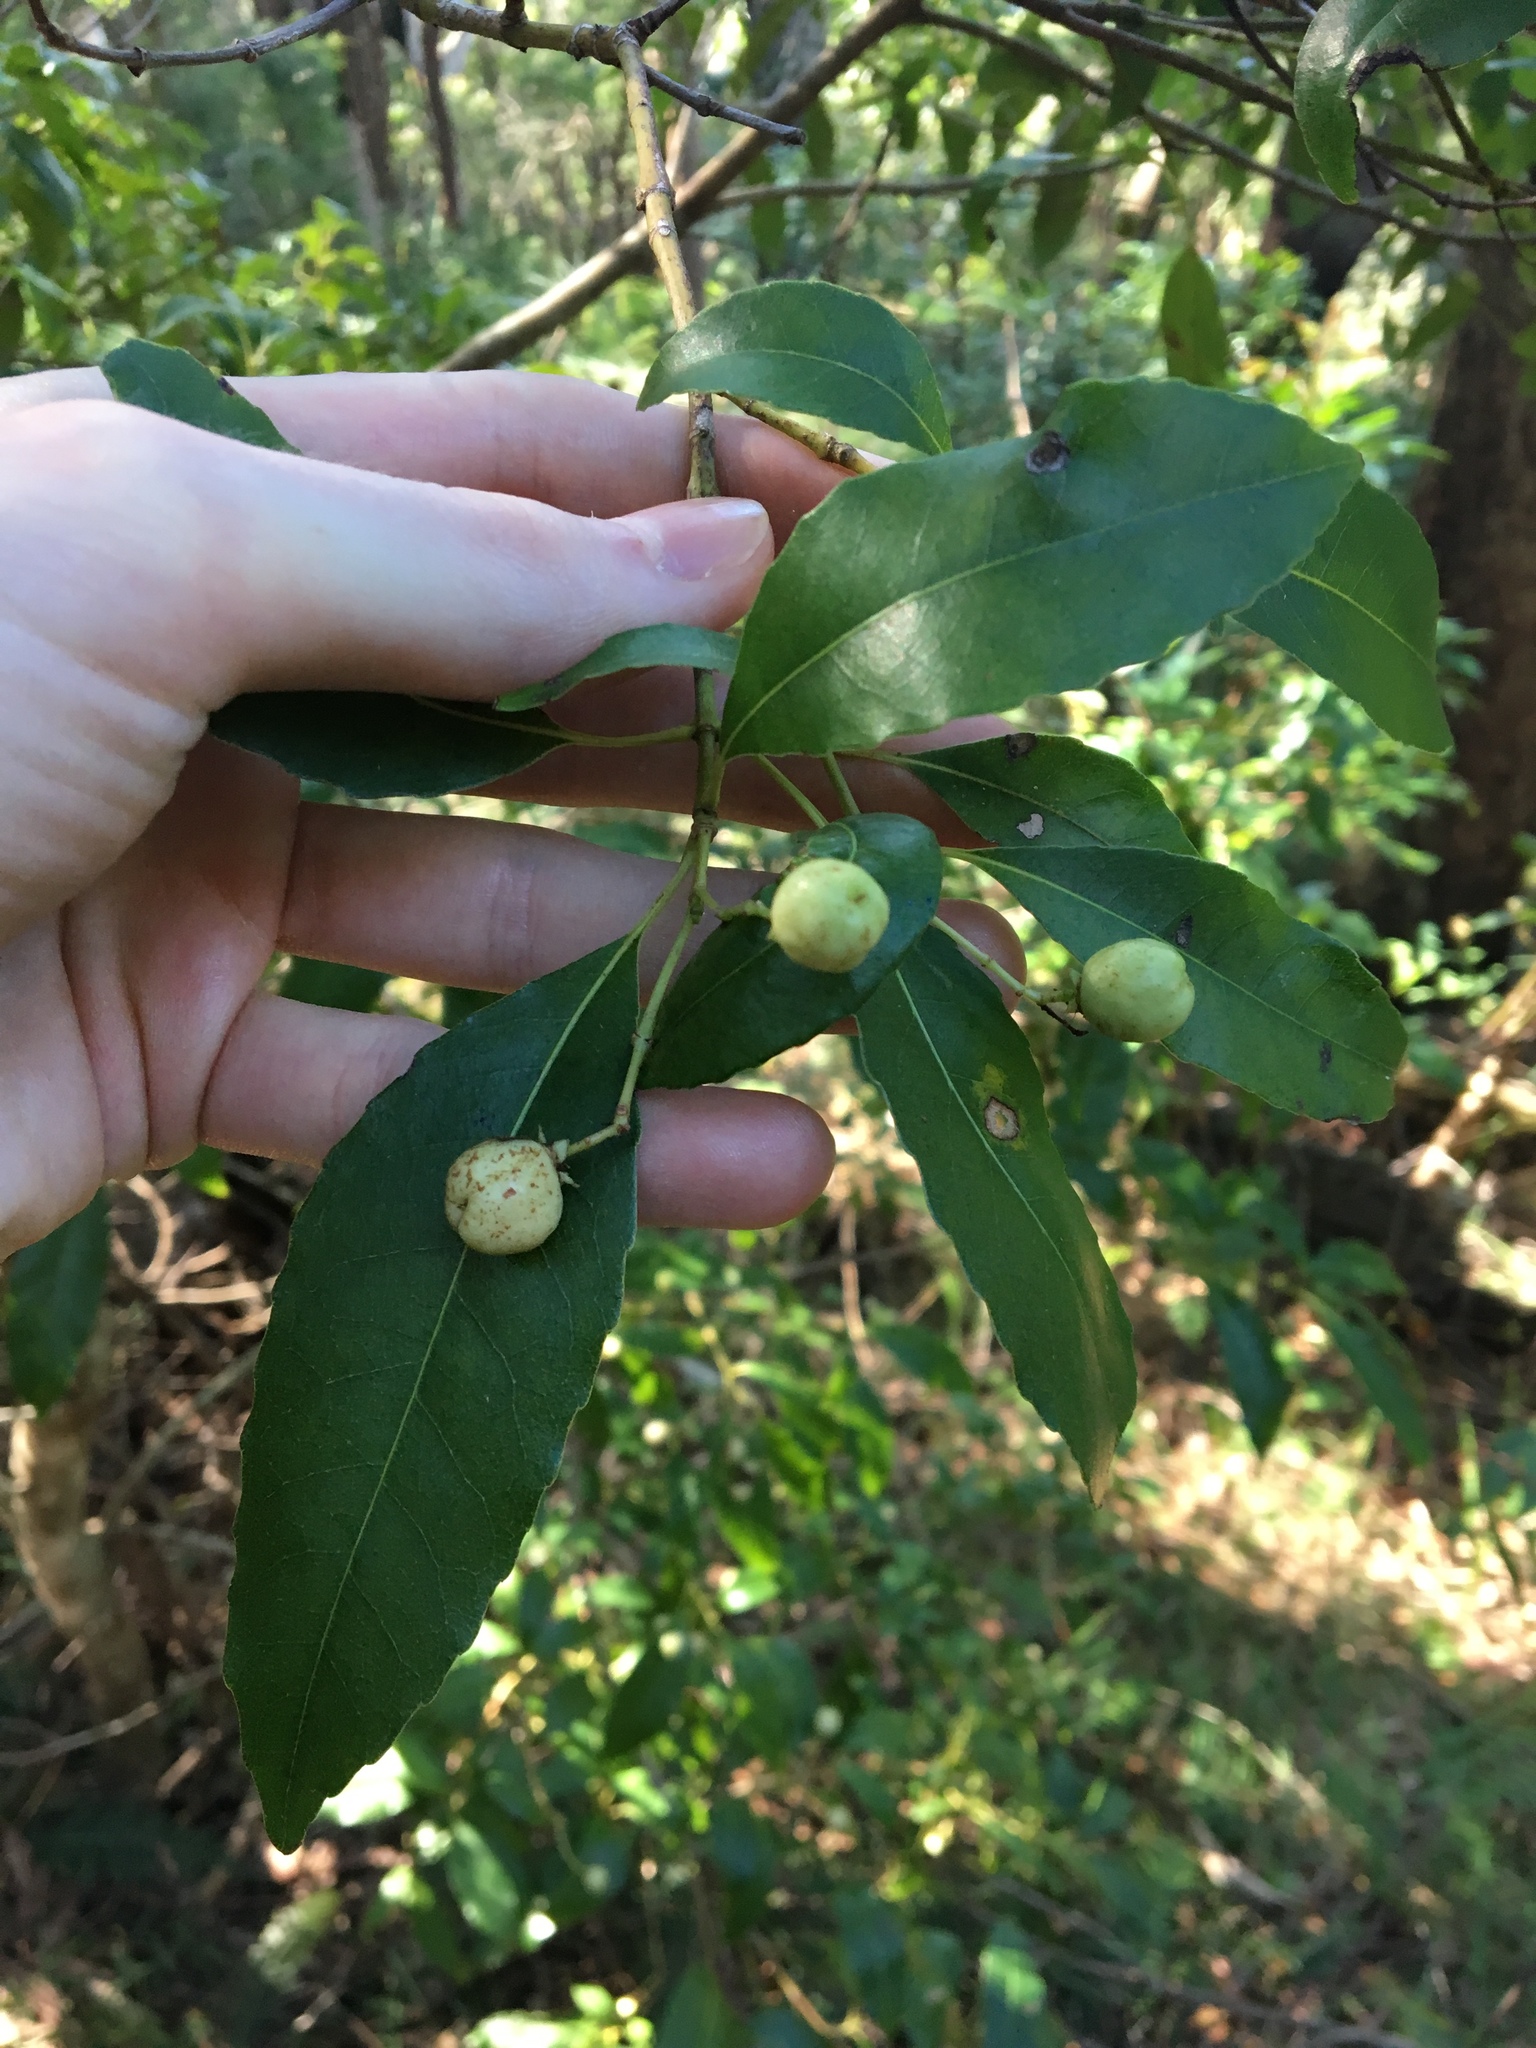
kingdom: Plantae
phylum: Tracheophyta
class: Magnoliopsida
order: Oxalidales
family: Cunoniaceae
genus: Schizomeria
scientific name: Schizomeria ovata
